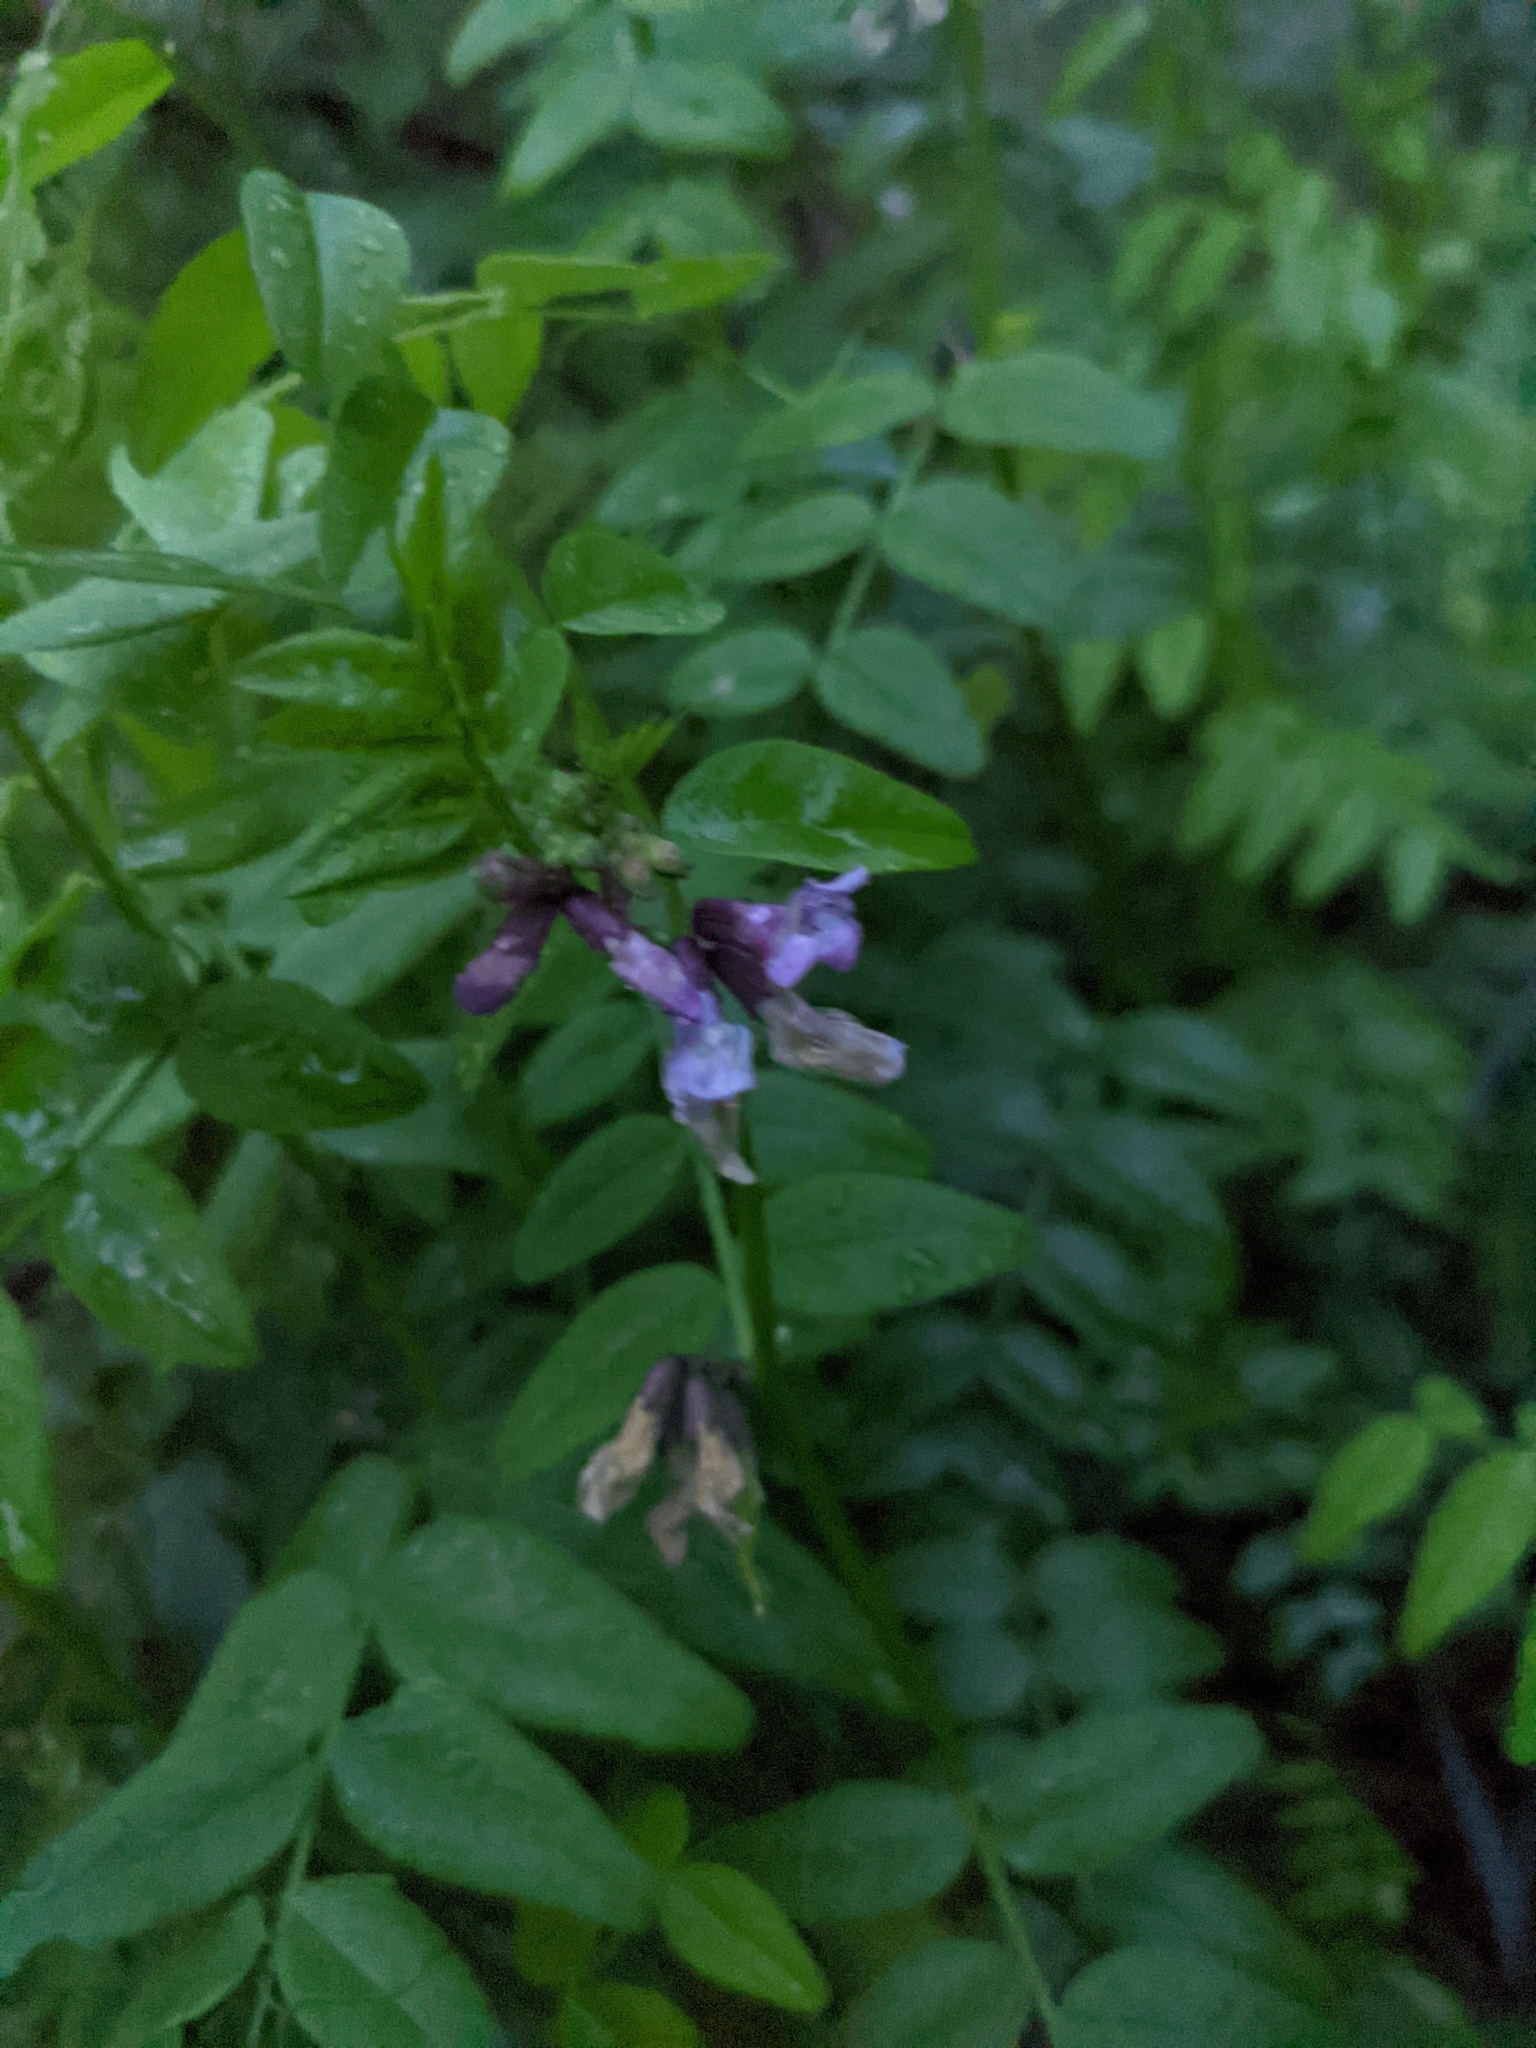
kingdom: Plantae
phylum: Tracheophyta
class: Magnoliopsida
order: Fabales
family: Fabaceae
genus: Vicia
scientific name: Vicia sepium
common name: Bush vetch
